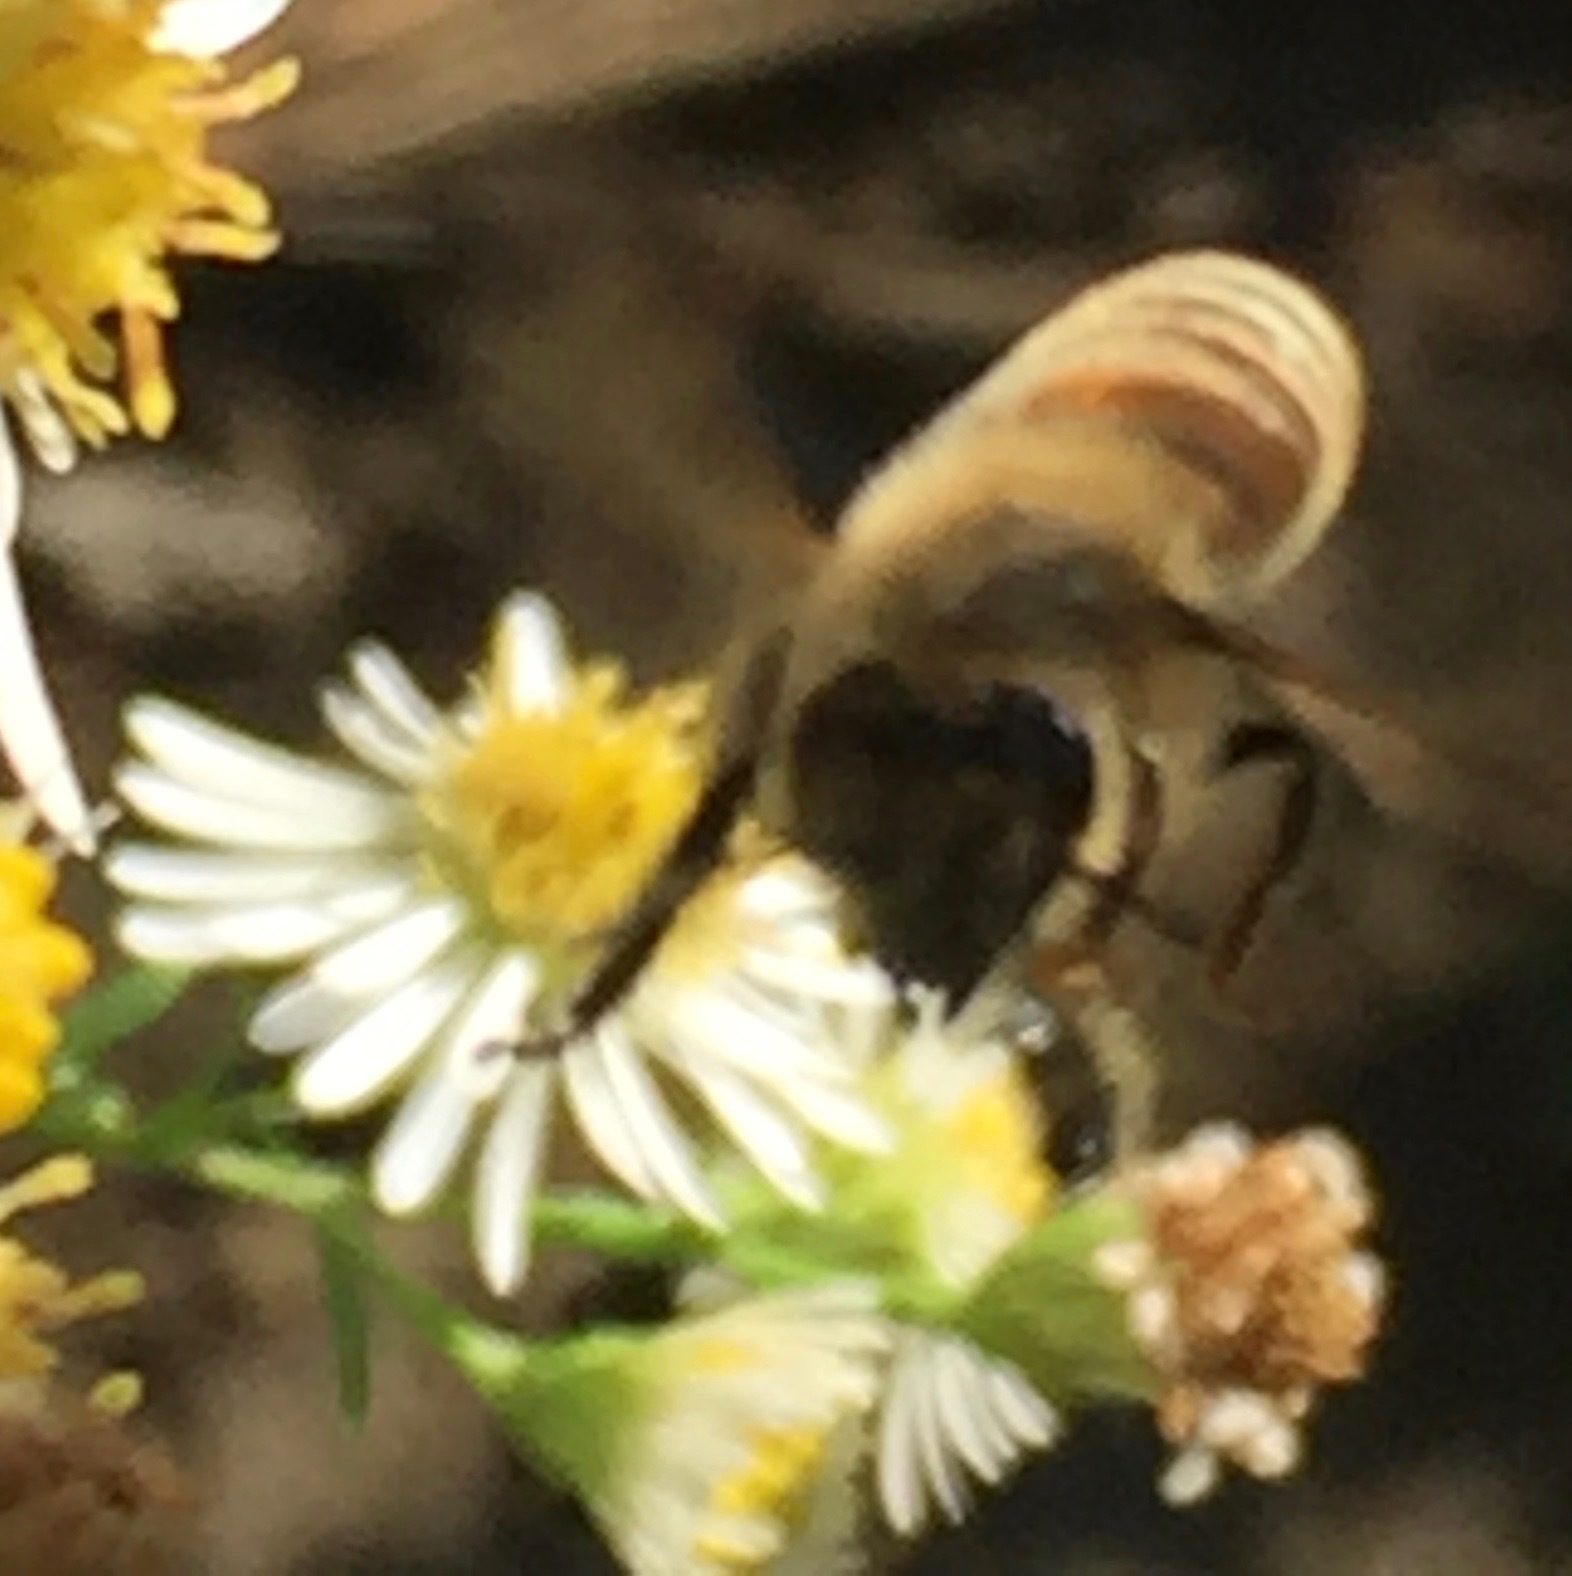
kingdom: Animalia
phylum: Arthropoda
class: Insecta
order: Hymenoptera
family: Apidae
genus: Apis
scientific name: Apis mellifera
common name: Honey bee
